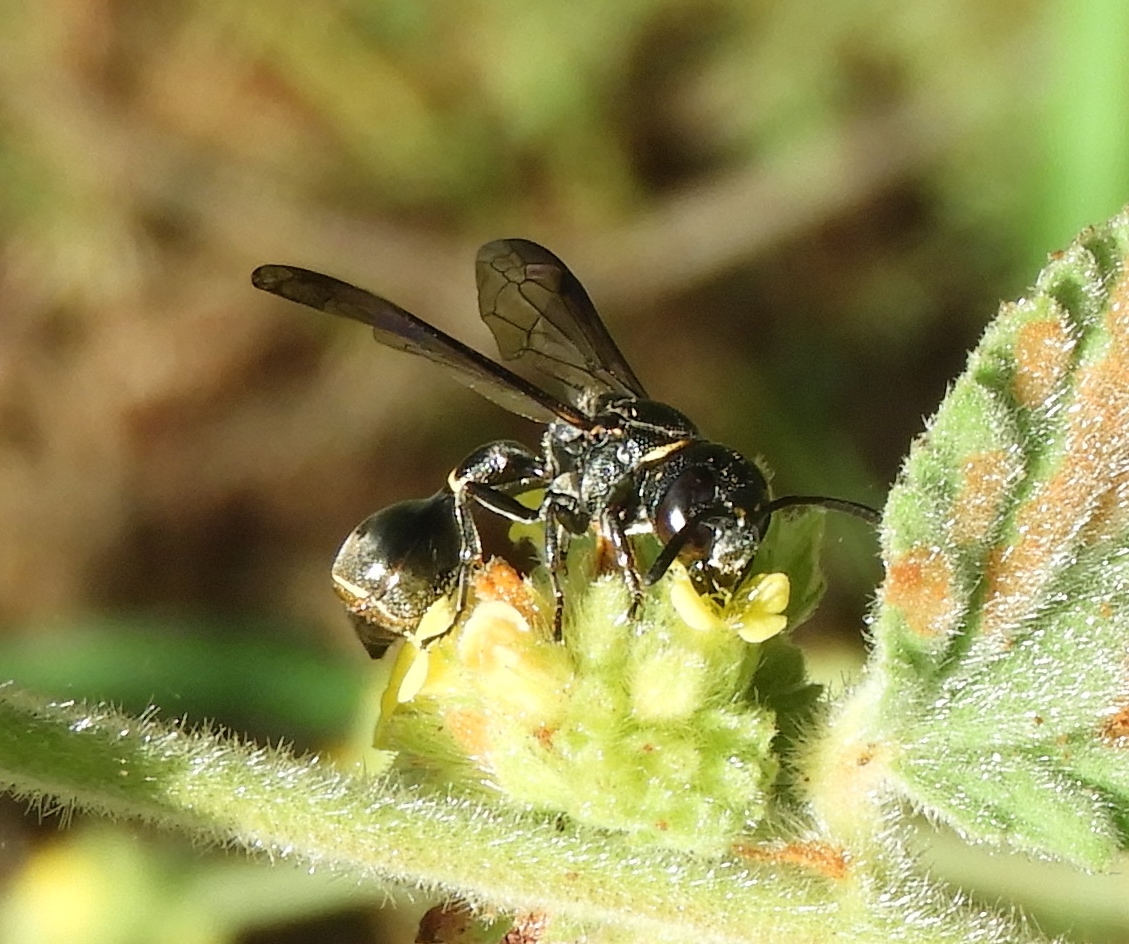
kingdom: Animalia
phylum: Arthropoda
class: Insecta
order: Hymenoptera
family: Eumenidae
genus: Zethus
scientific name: Zethus nigricornis
